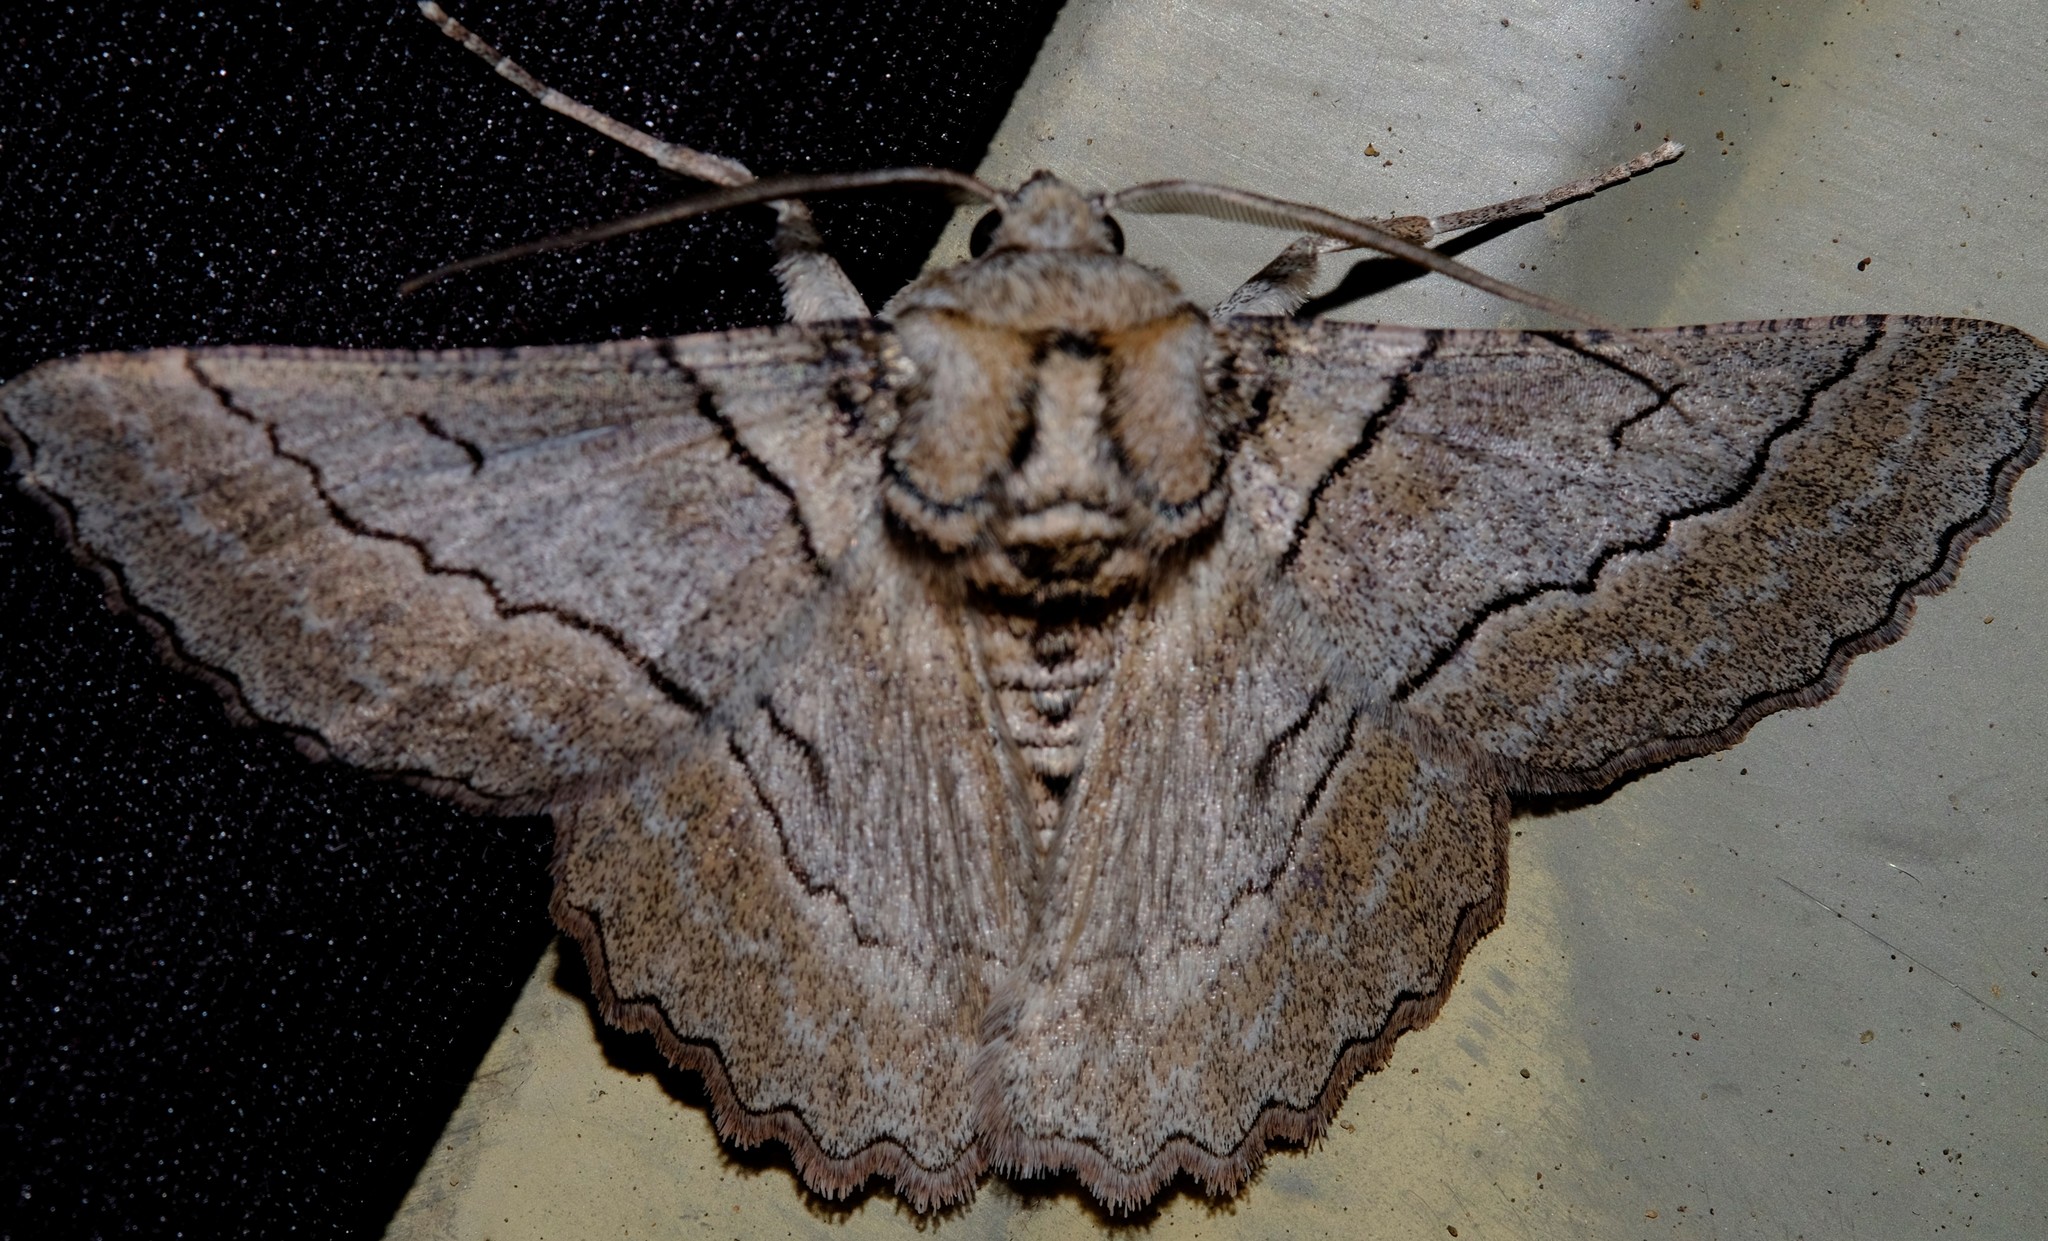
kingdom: Animalia
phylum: Arthropoda
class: Insecta
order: Lepidoptera
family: Geometridae
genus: Hypobapta
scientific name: Hypobapta tachyhalotaria
